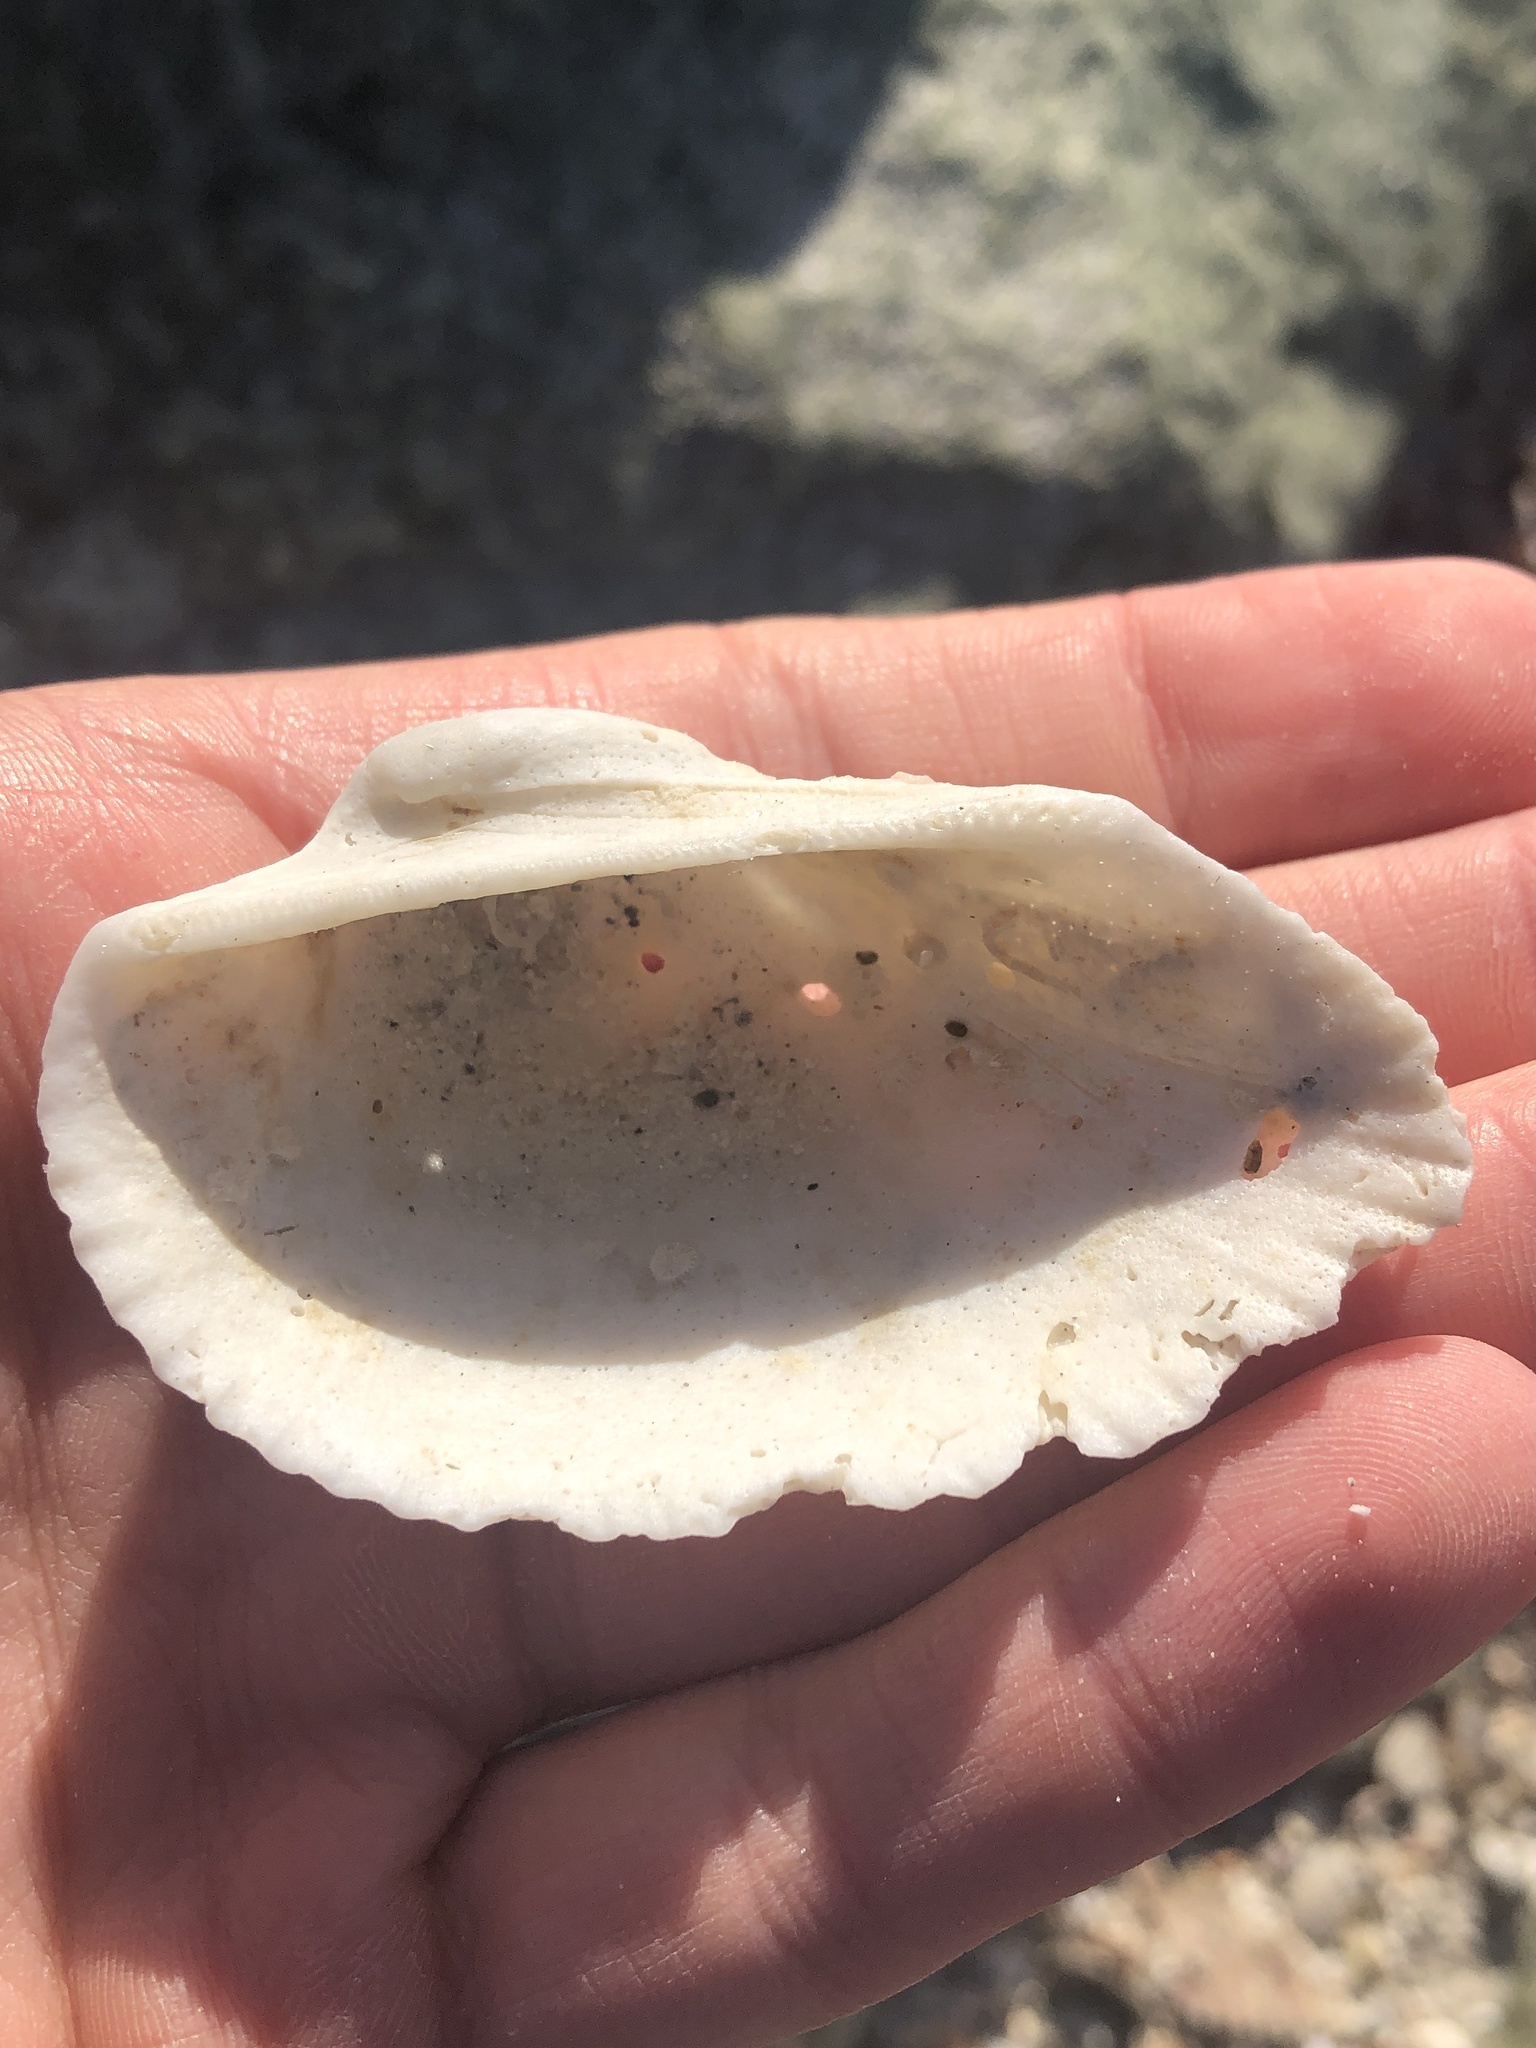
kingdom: Animalia
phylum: Mollusca
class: Bivalvia
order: Arcida
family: Arcidae
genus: Anadara
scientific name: Anadara secticostata
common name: Cut-ribbed ark
